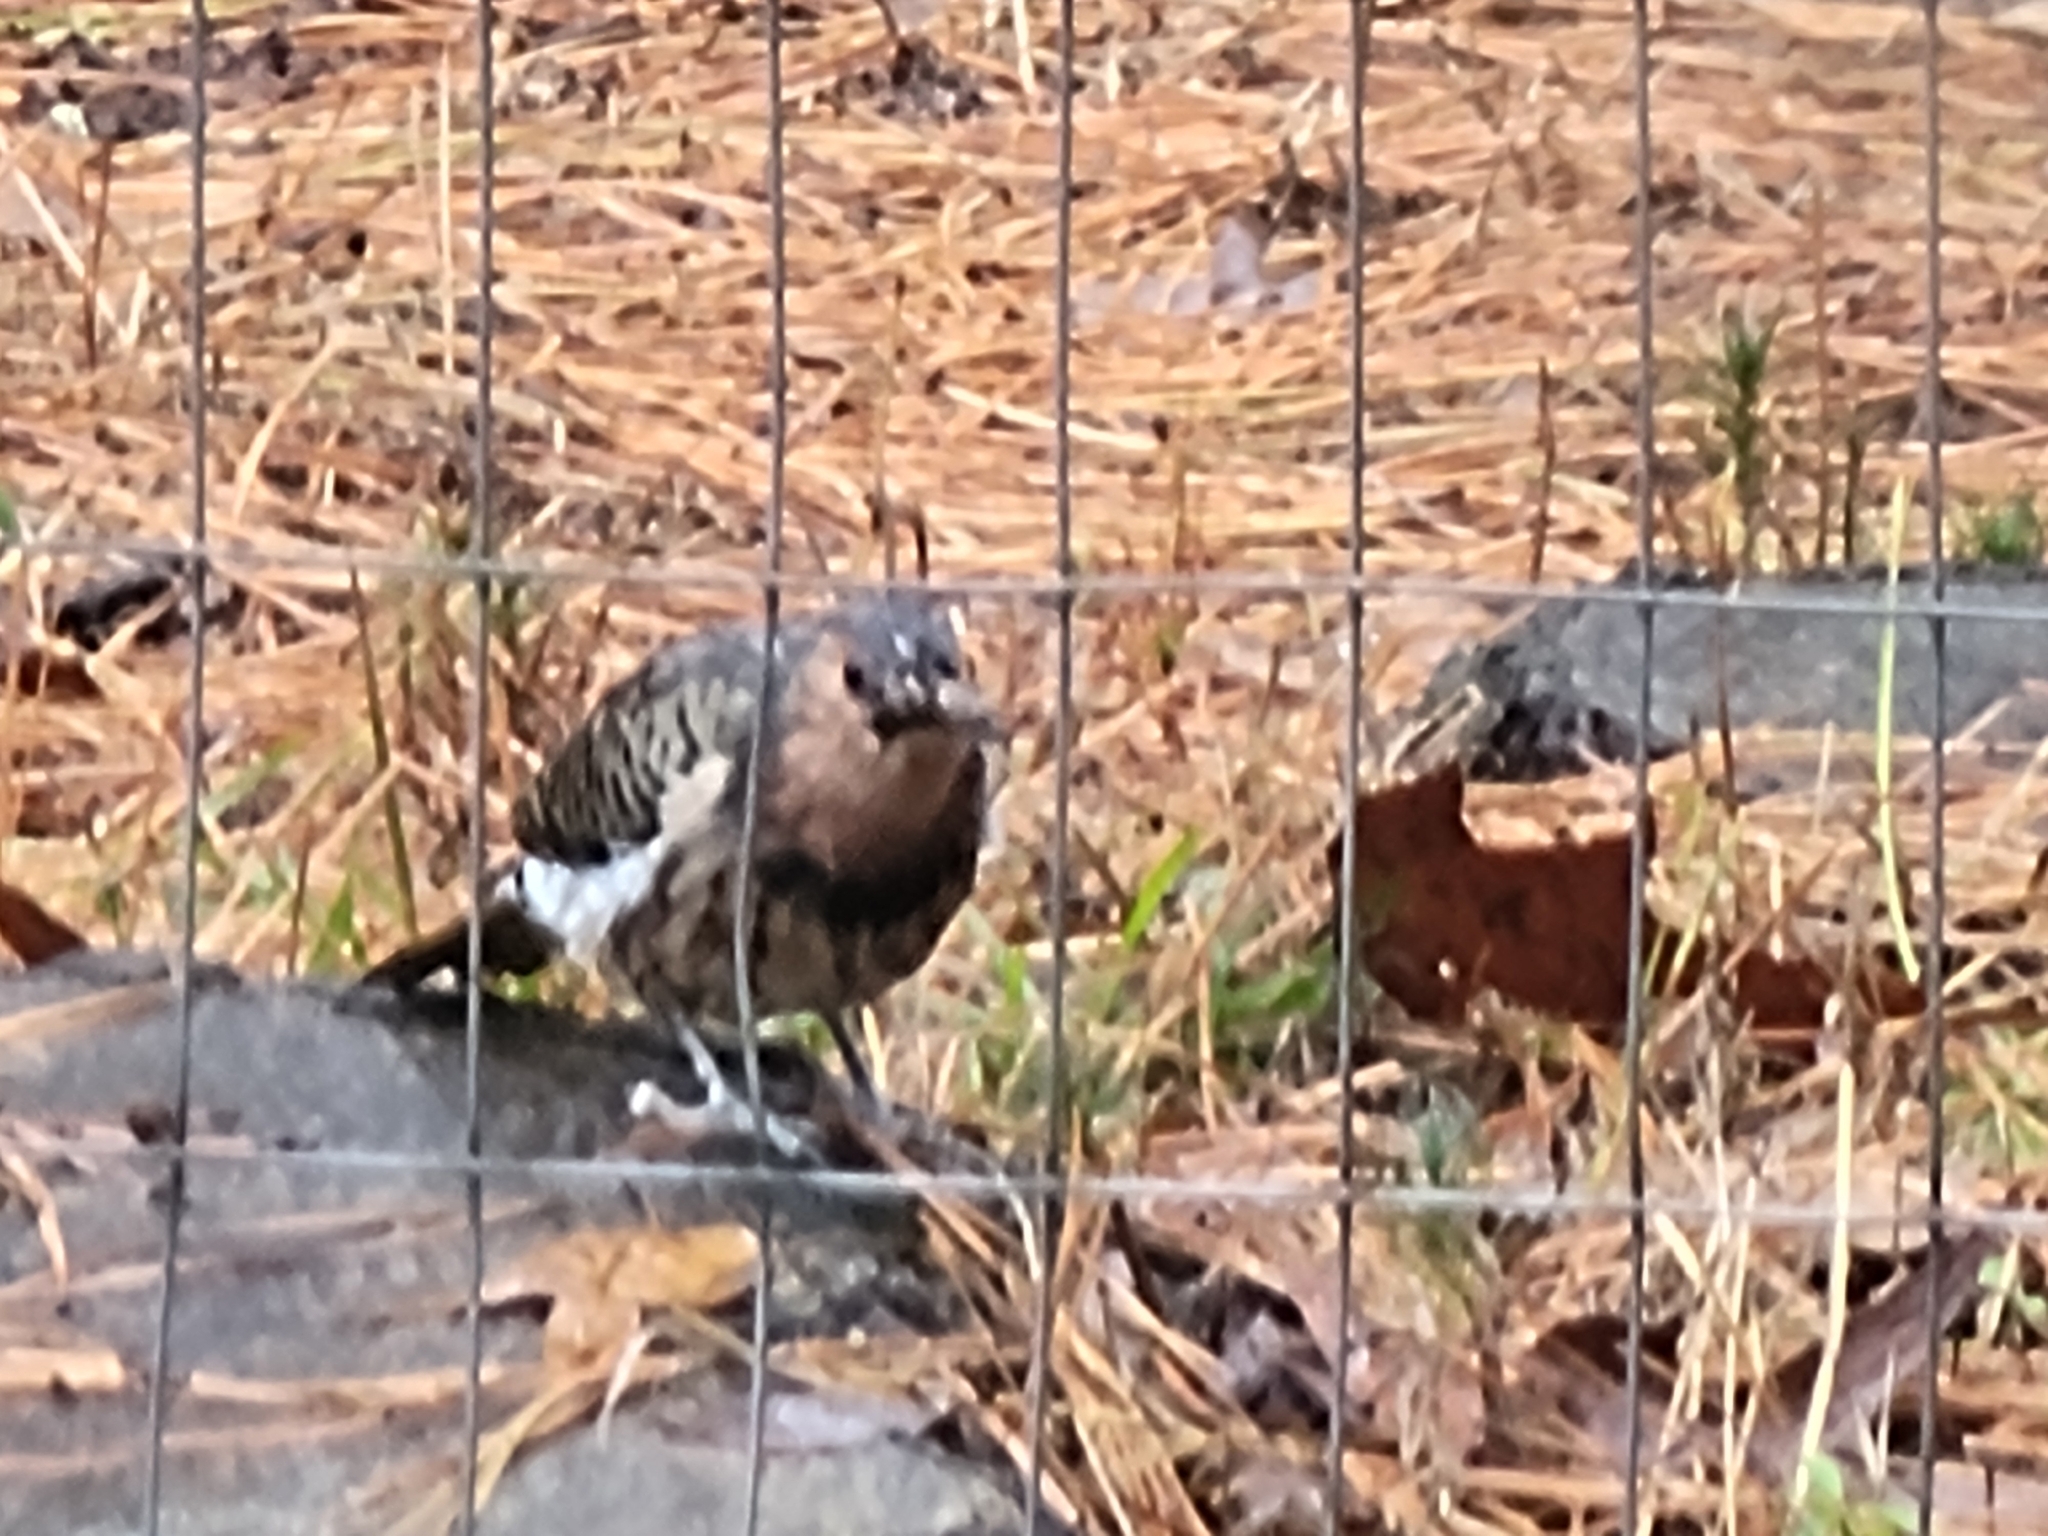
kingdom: Animalia
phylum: Chordata
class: Aves
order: Piciformes
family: Picidae
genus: Colaptes
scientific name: Colaptes auratus
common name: Northern flicker
